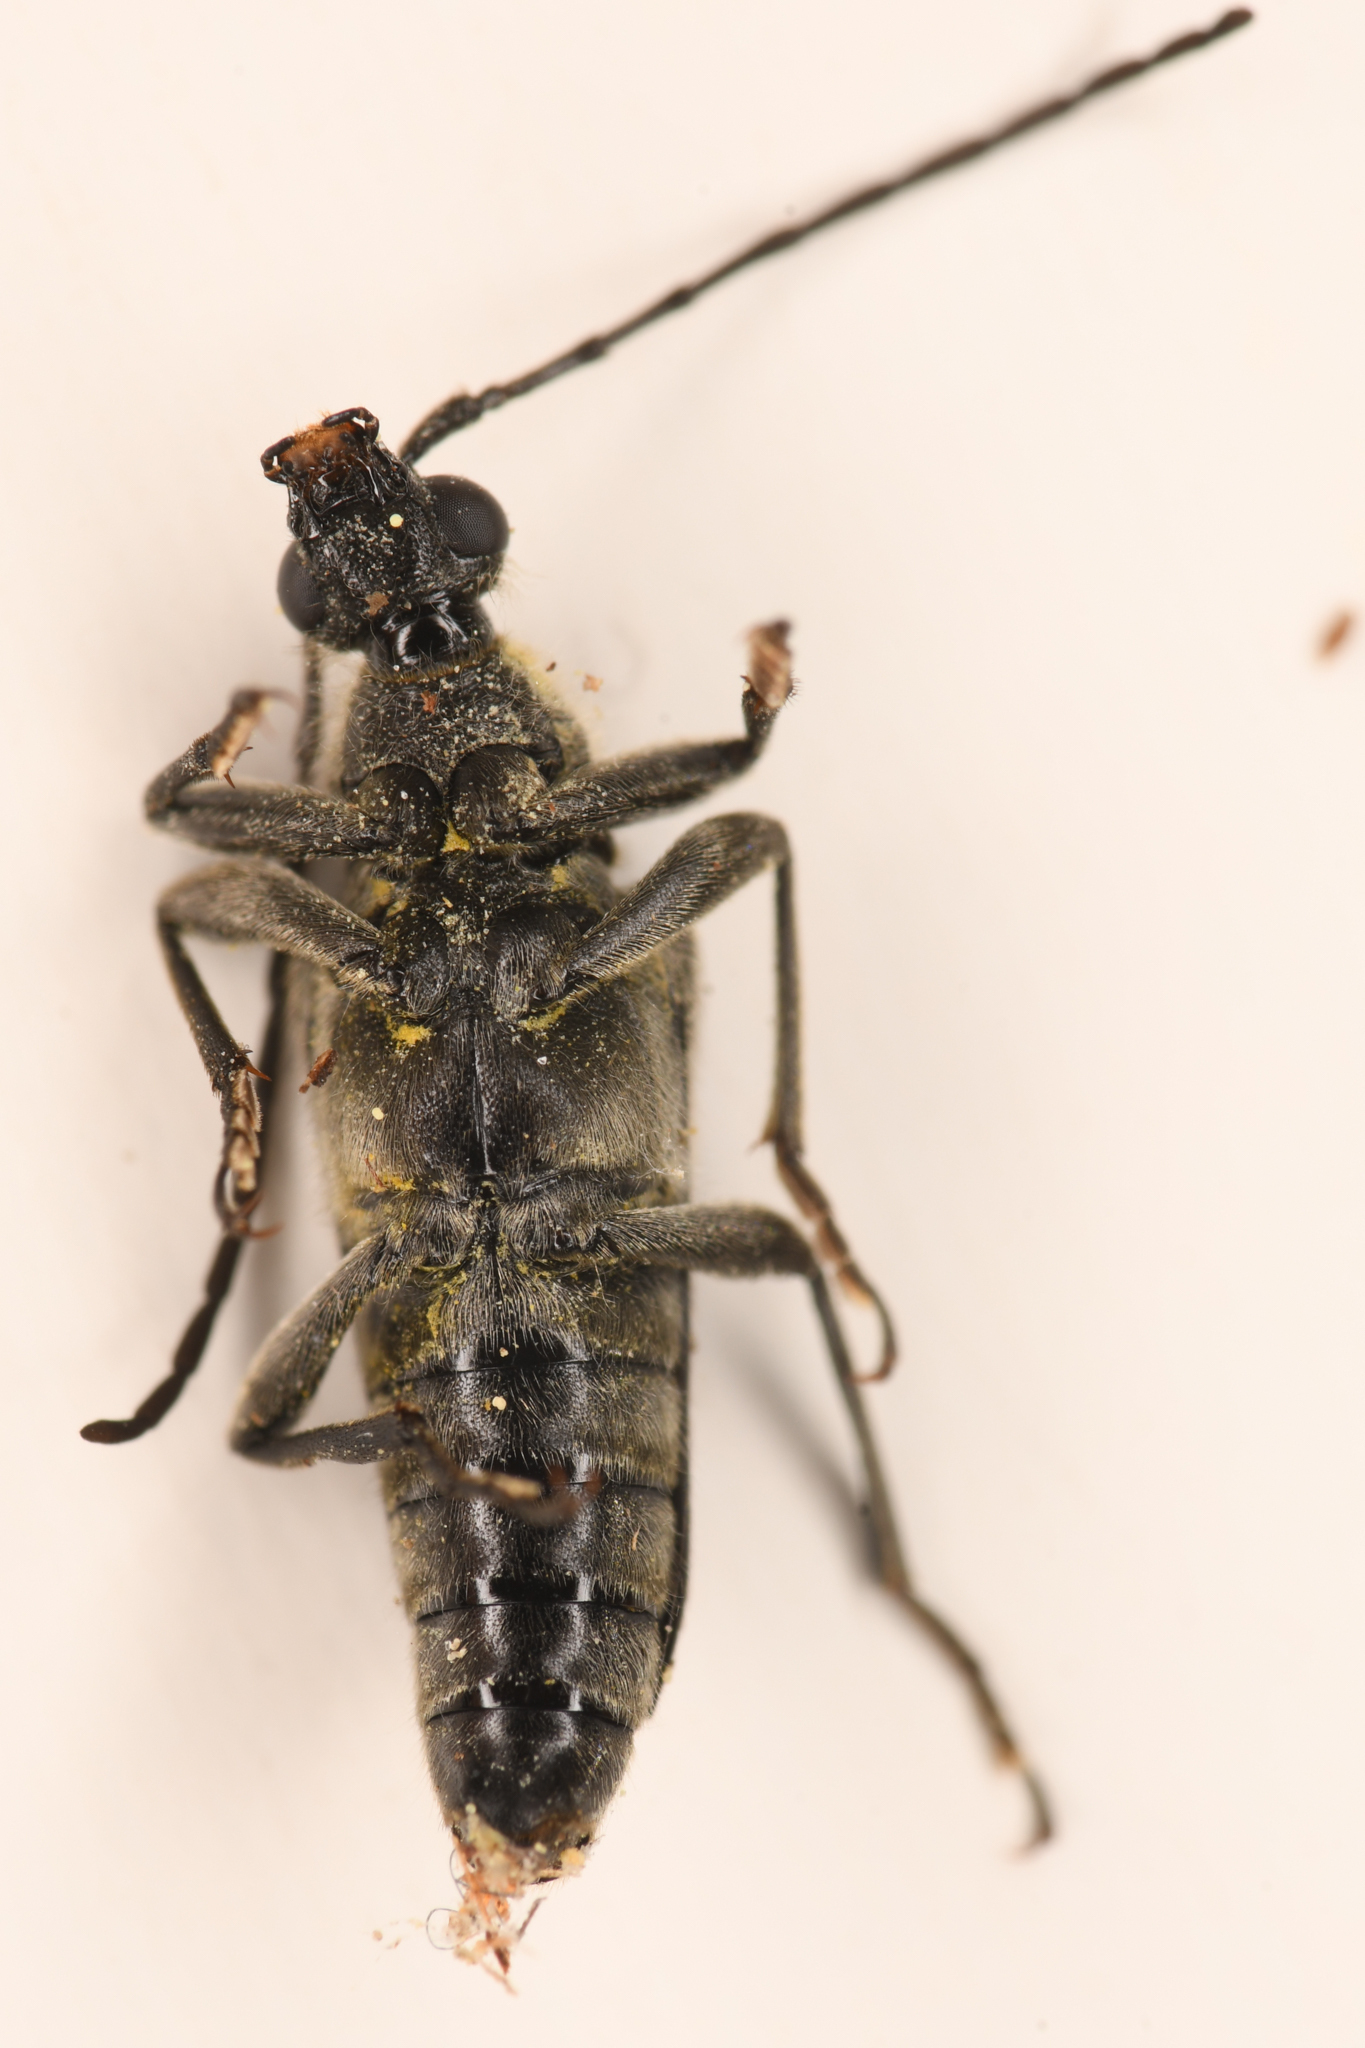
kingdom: Animalia
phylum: Arthropoda
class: Insecta
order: Coleoptera
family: Cerambycidae
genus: Brachyleptura
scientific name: Brachyleptura vexatrix
